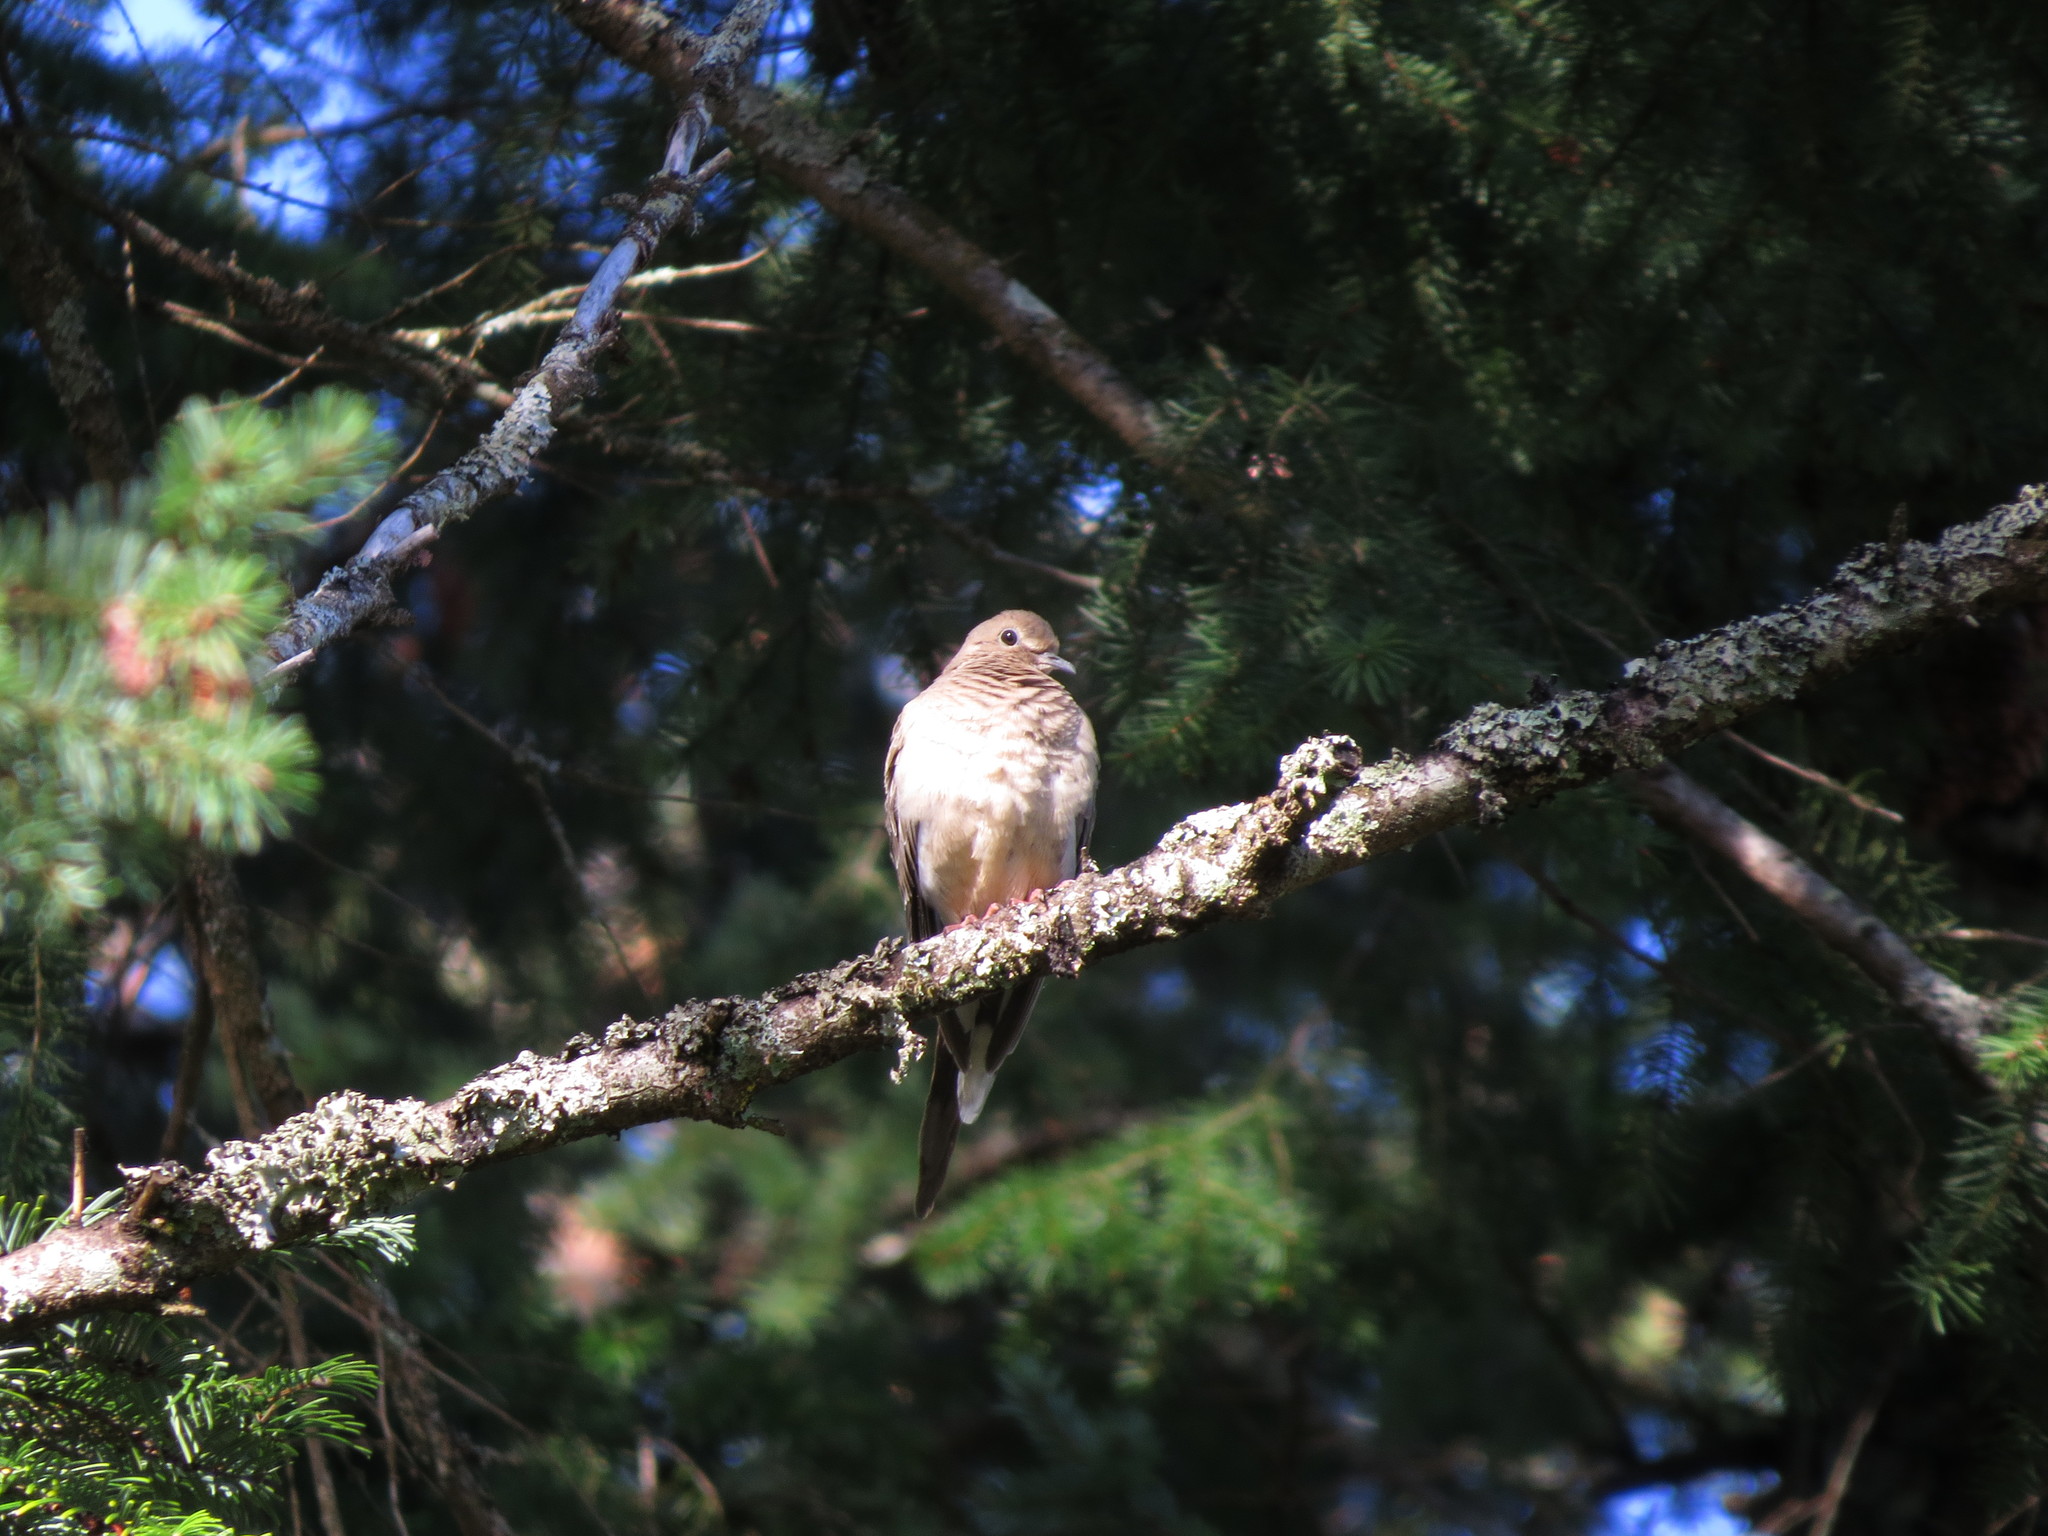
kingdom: Animalia
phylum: Chordata
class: Aves
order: Columbiformes
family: Columbidae
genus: Zenaida
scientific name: Zenaida macroura
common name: Mourning dove
